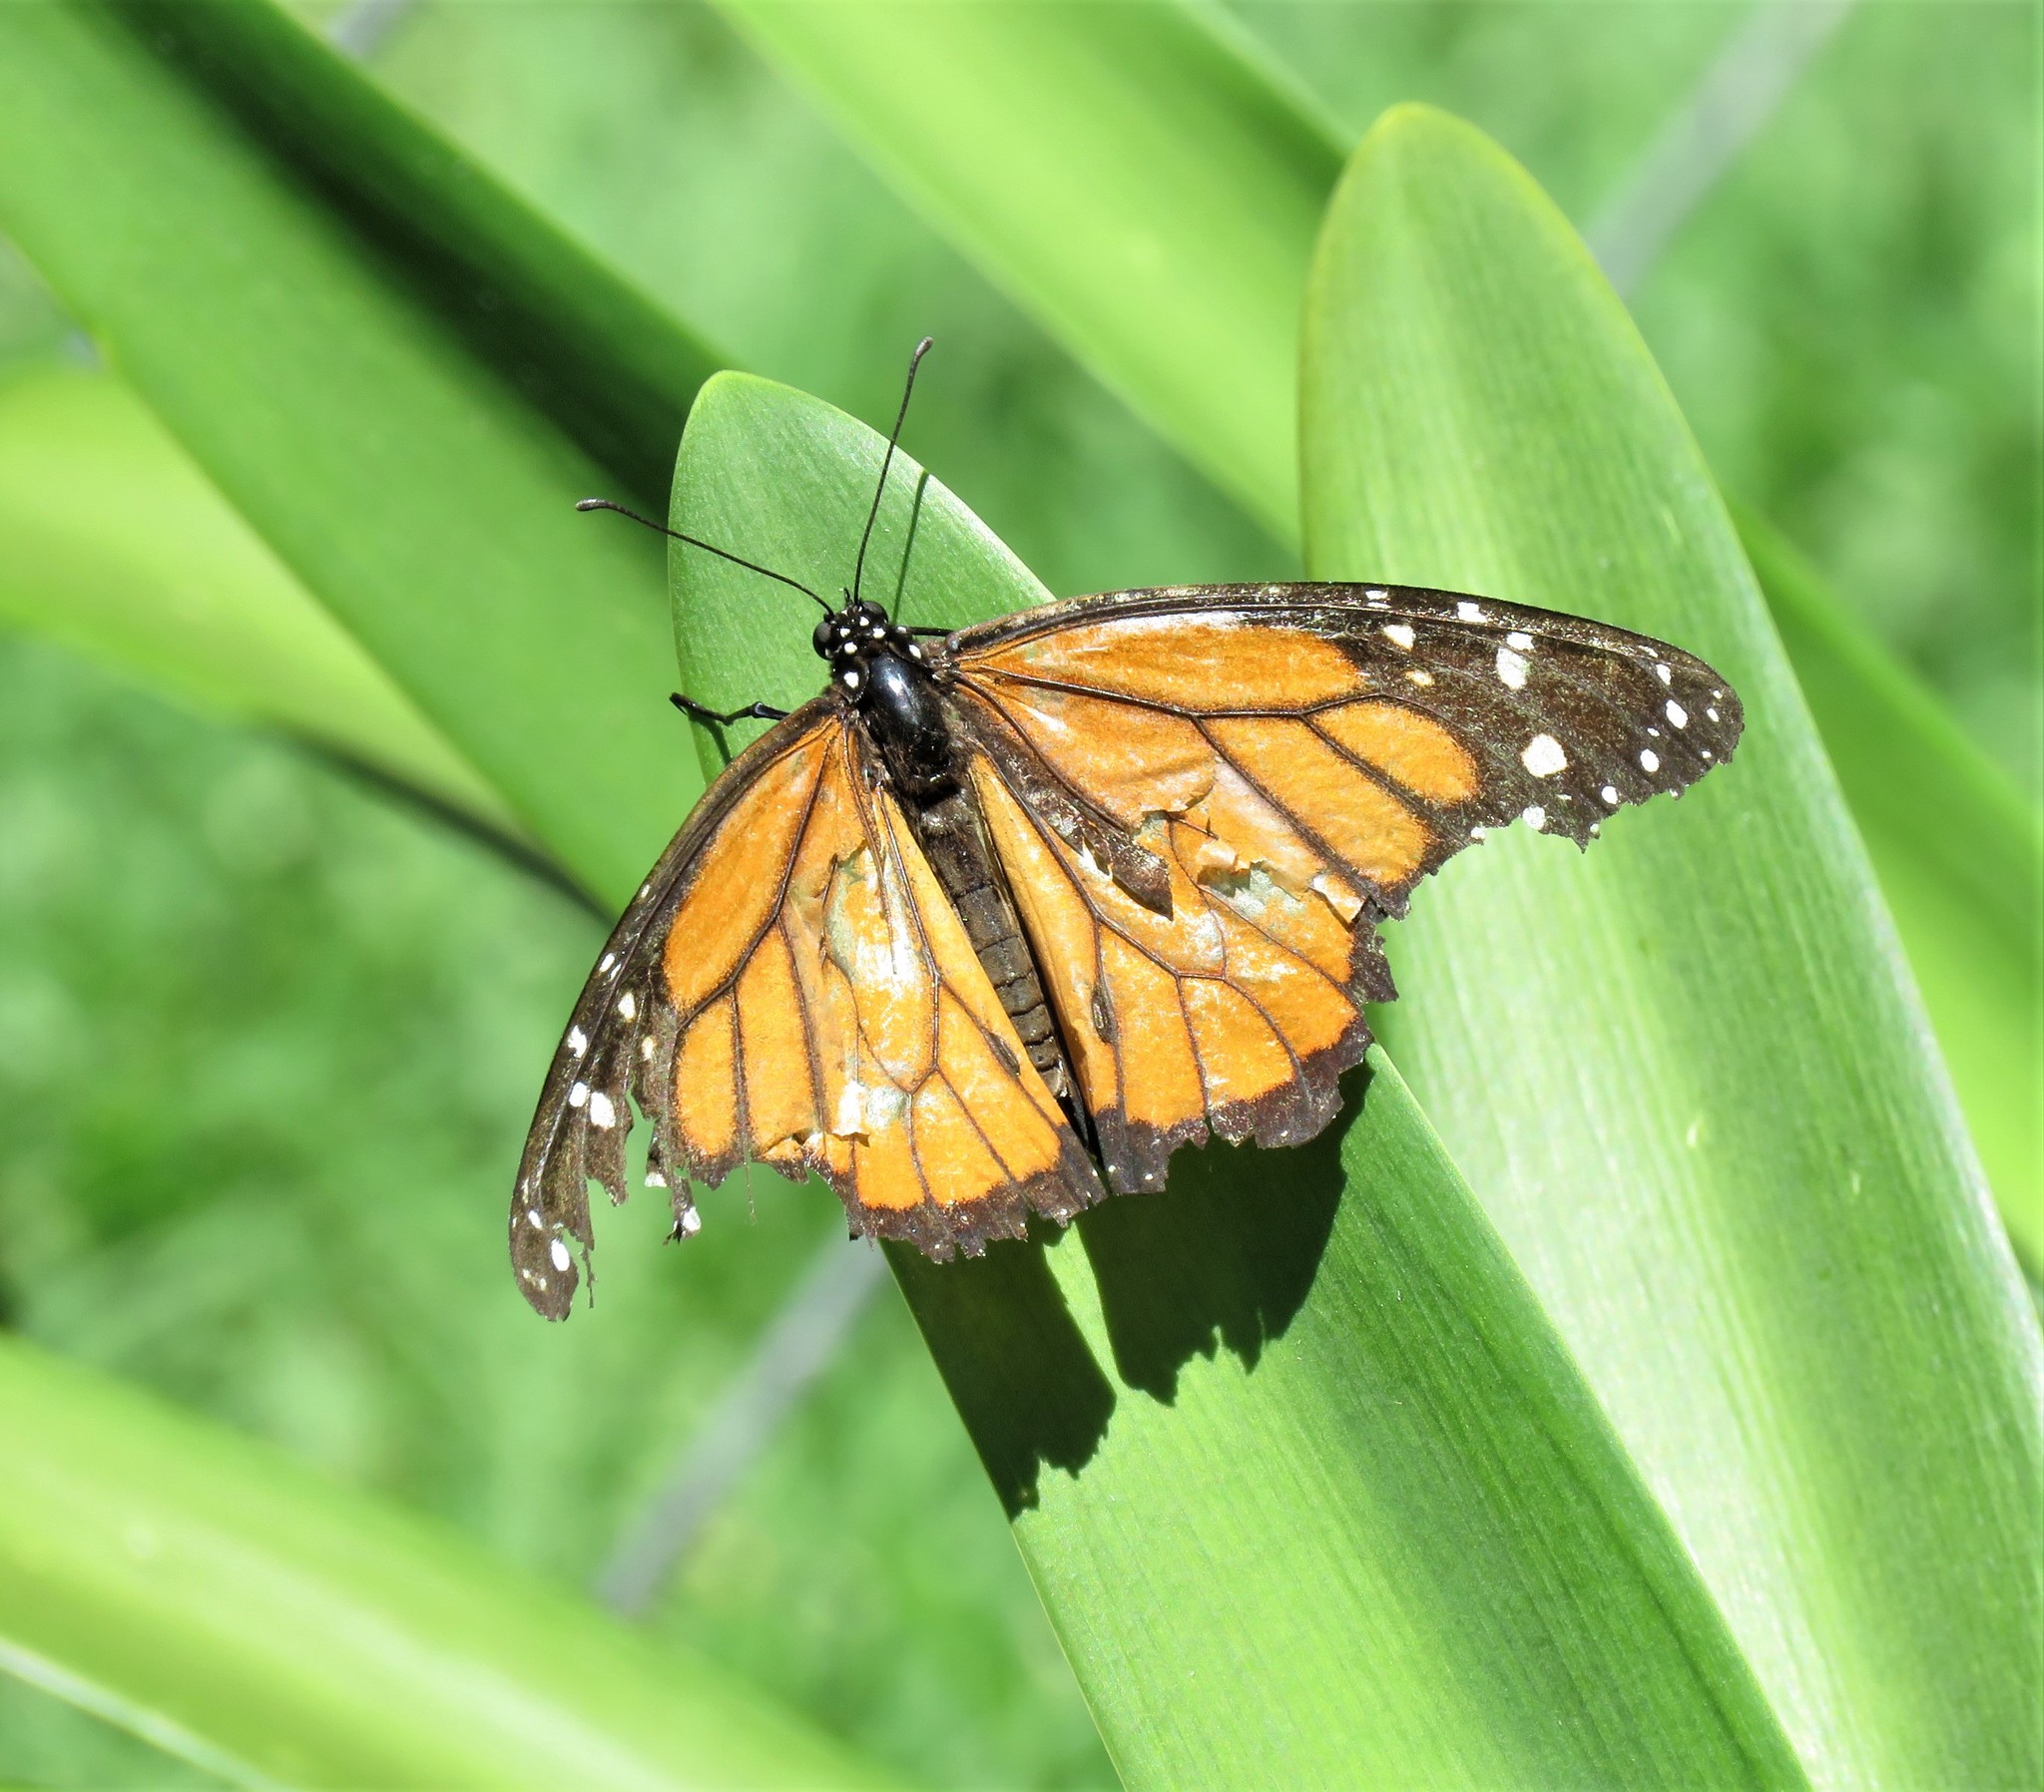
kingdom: Animalia
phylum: Arthropoda
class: Insecta
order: Lepidoptera
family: Nymphalidae
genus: Danaus
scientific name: Danaus plexippus
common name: Monarch
